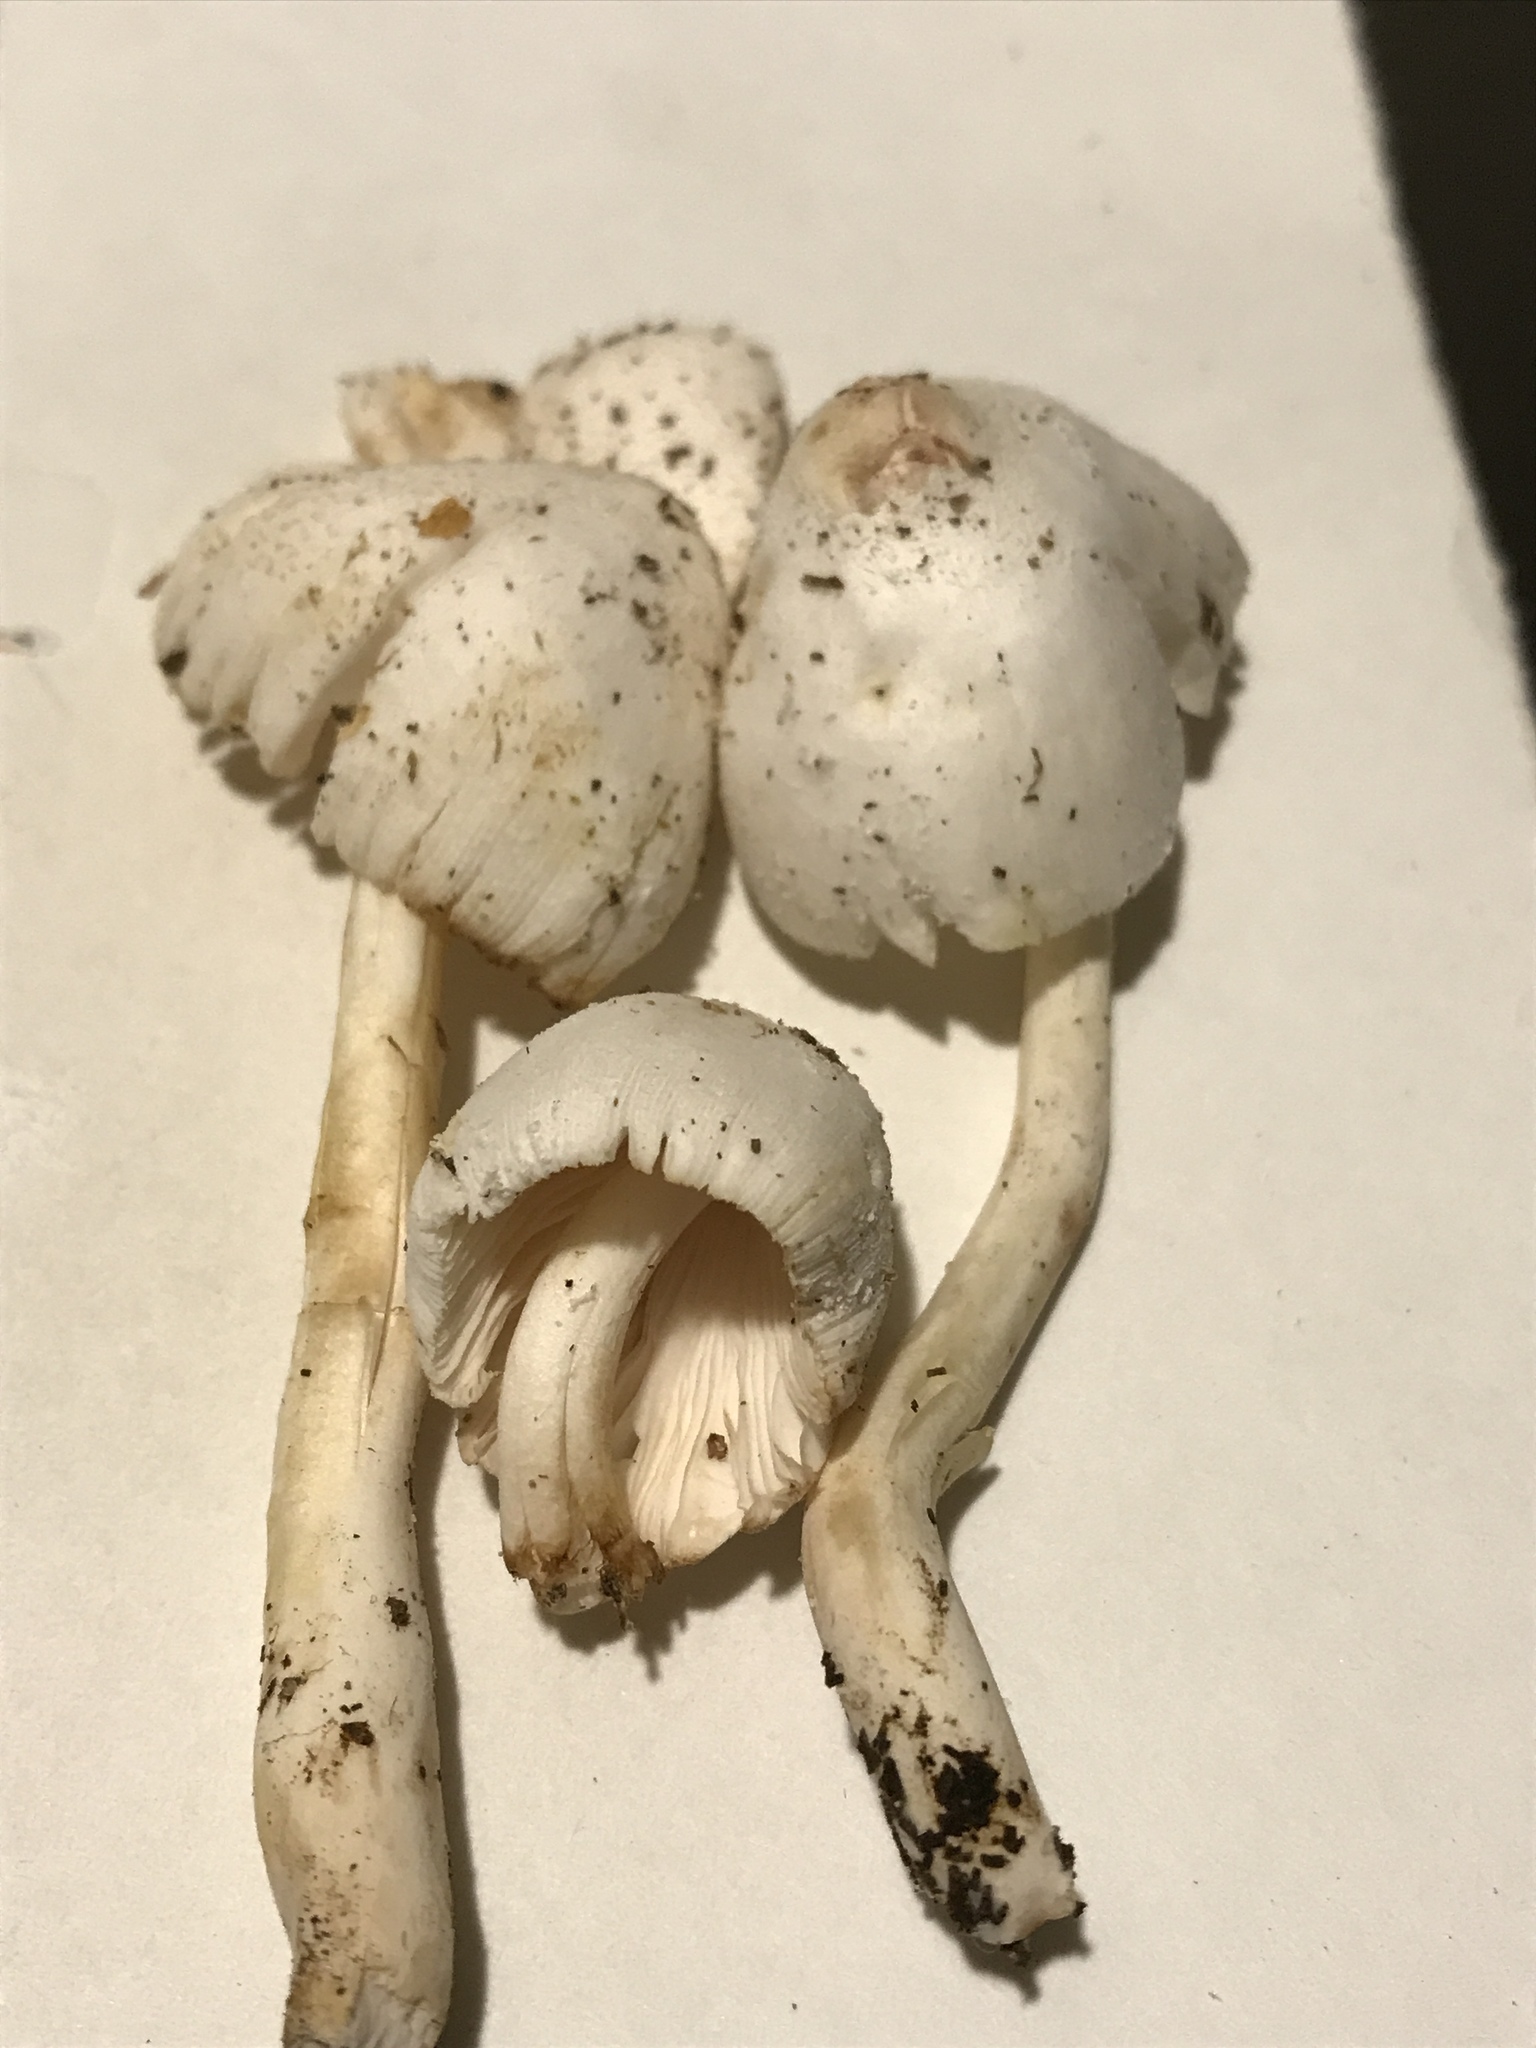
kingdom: Fungi
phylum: Basidiomycota
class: Agaricomycetes
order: Agaricales
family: Agaricaceae
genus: Leucocoprinus
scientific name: Leucocoprinus cepistipes
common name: Onion-stalk parasol
